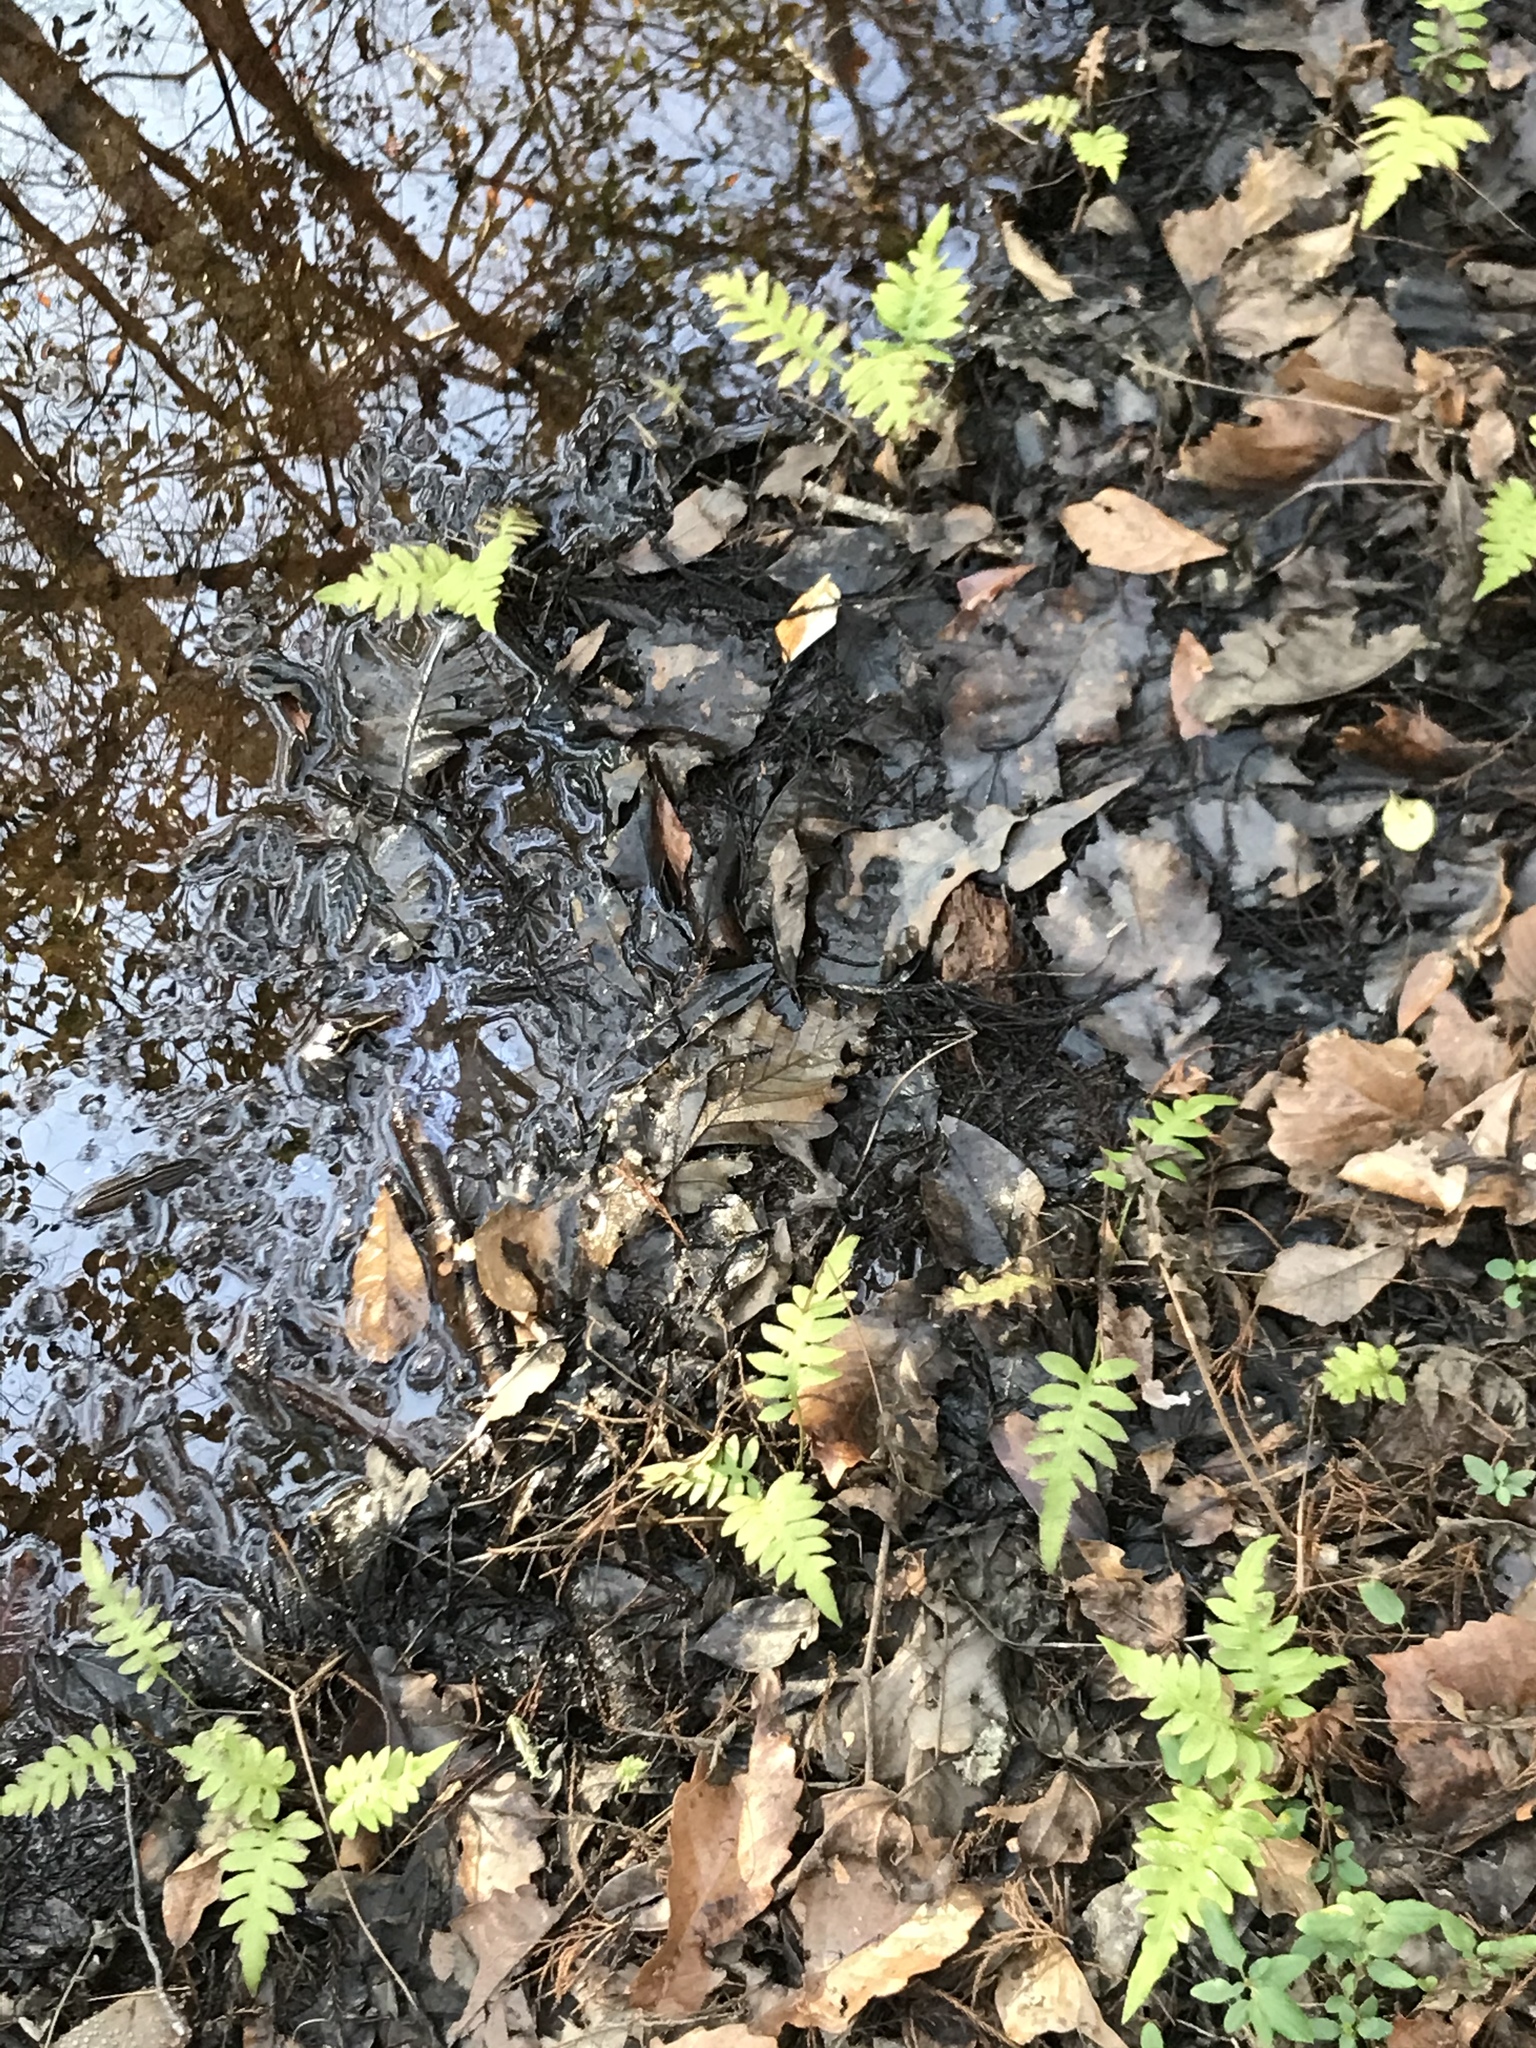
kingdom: Plantae
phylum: Tracheophyta
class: Polypodiopsida
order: Polypodiales
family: Blechnaceae
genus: Lorinseria
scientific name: Lorinseria areolata
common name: Dwarf chain fern
